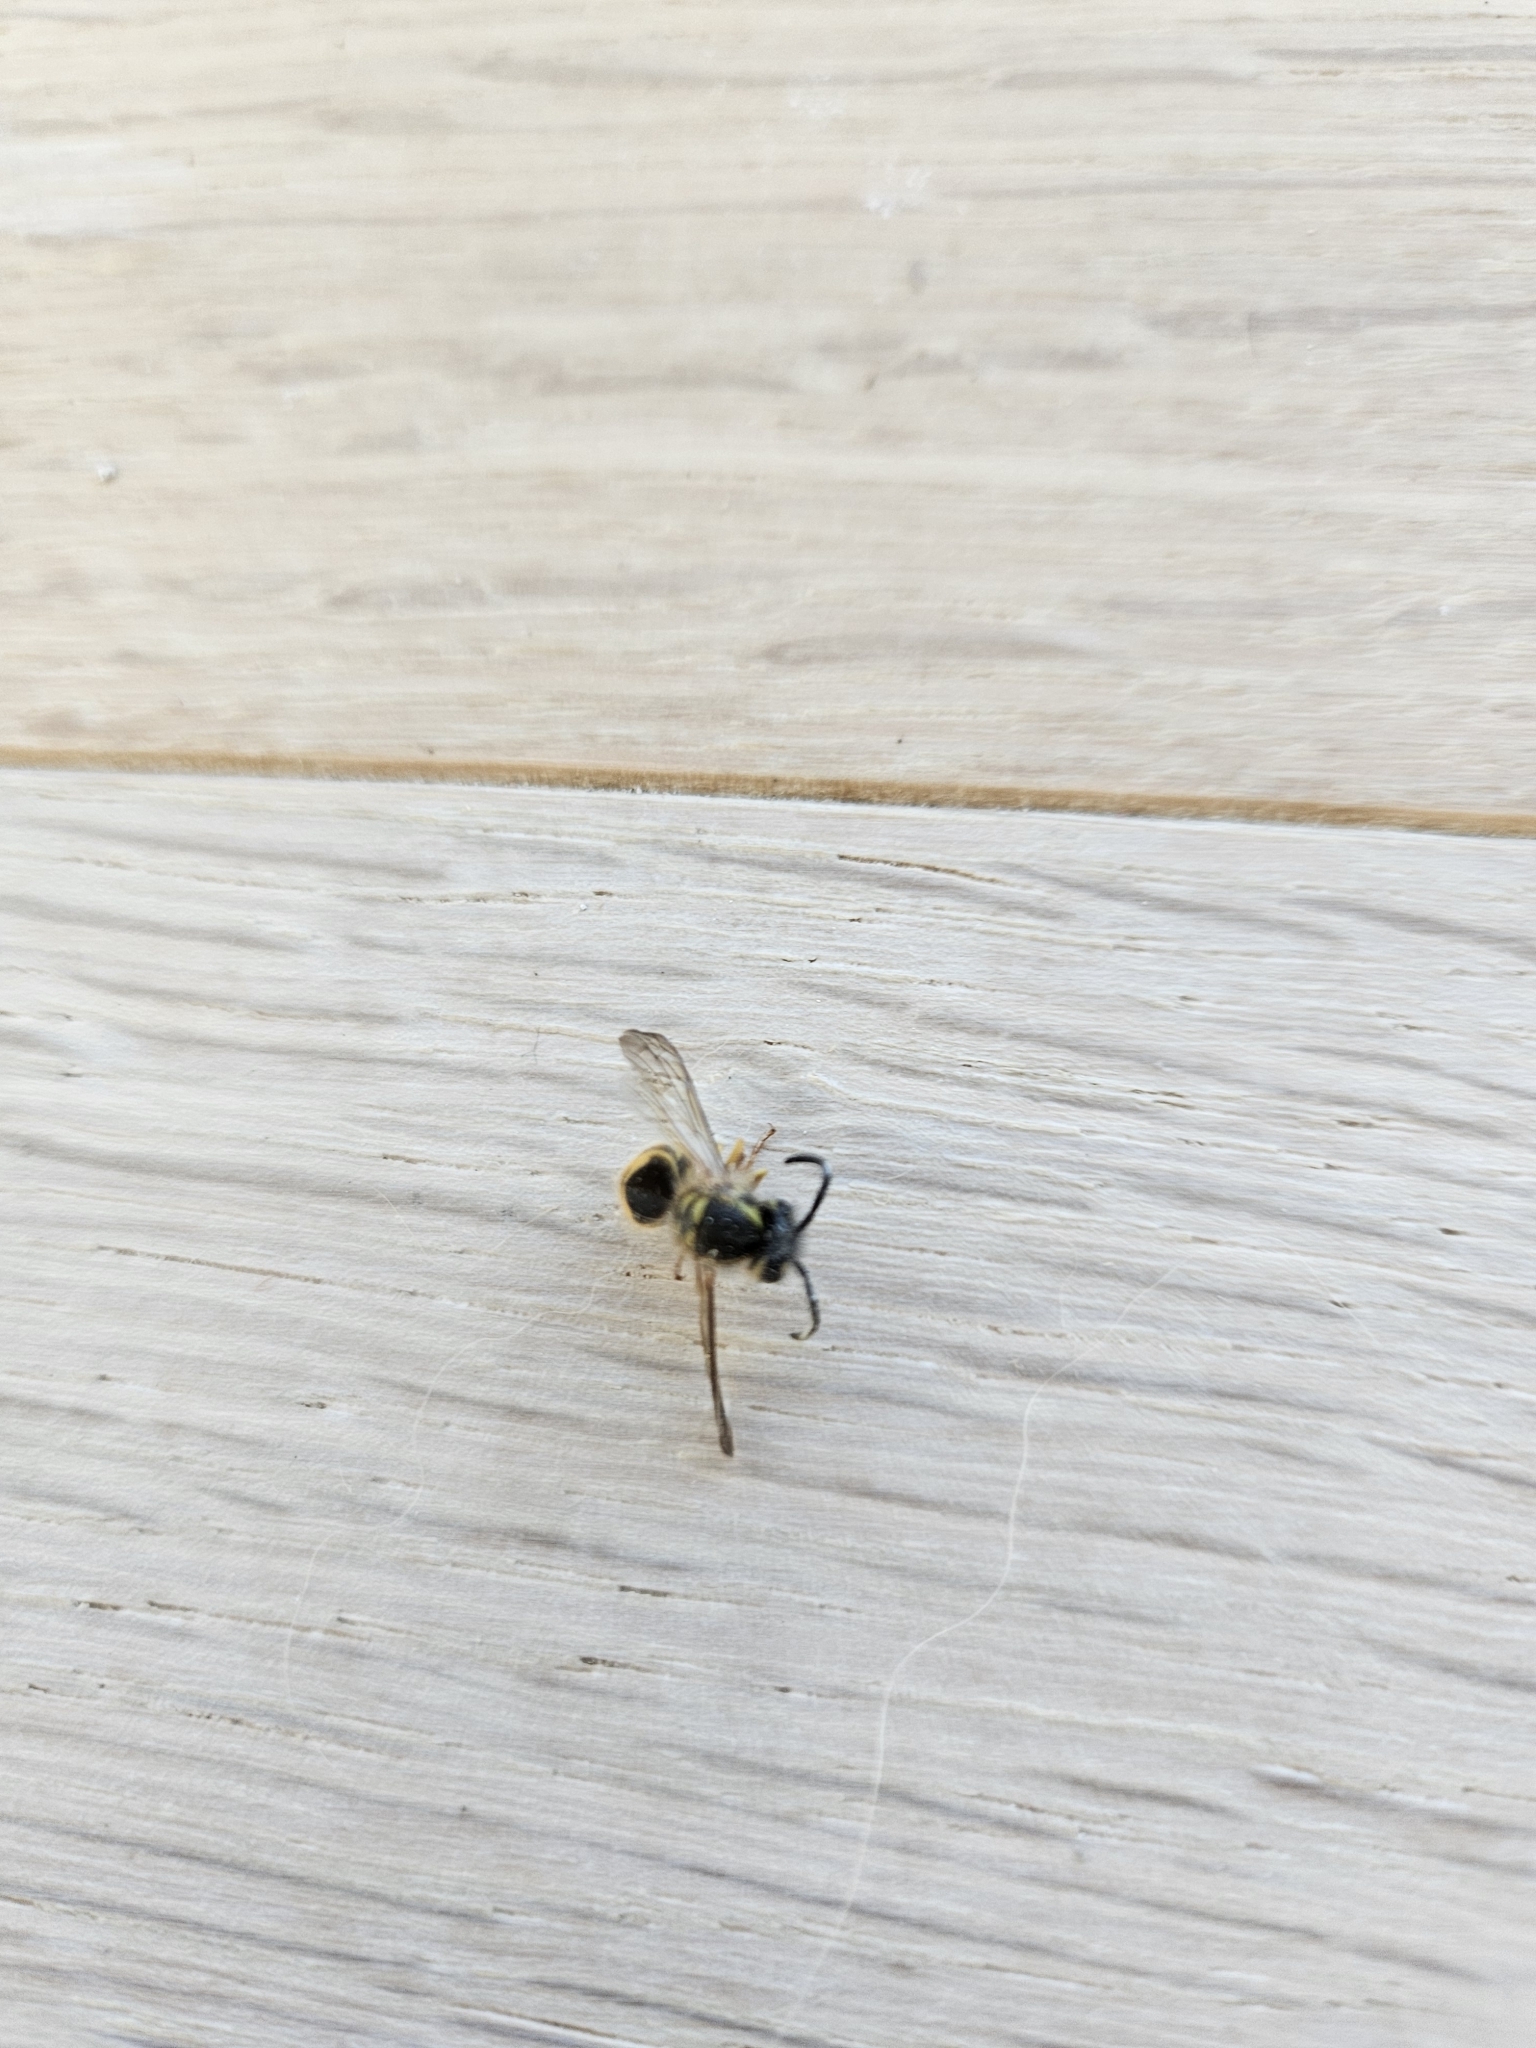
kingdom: Animalia
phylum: Arthropoda
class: Insecta
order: Hymenoptera
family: Vespidae
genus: Vespula
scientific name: Vespula maculifrons
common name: Eastern yellowjacket
